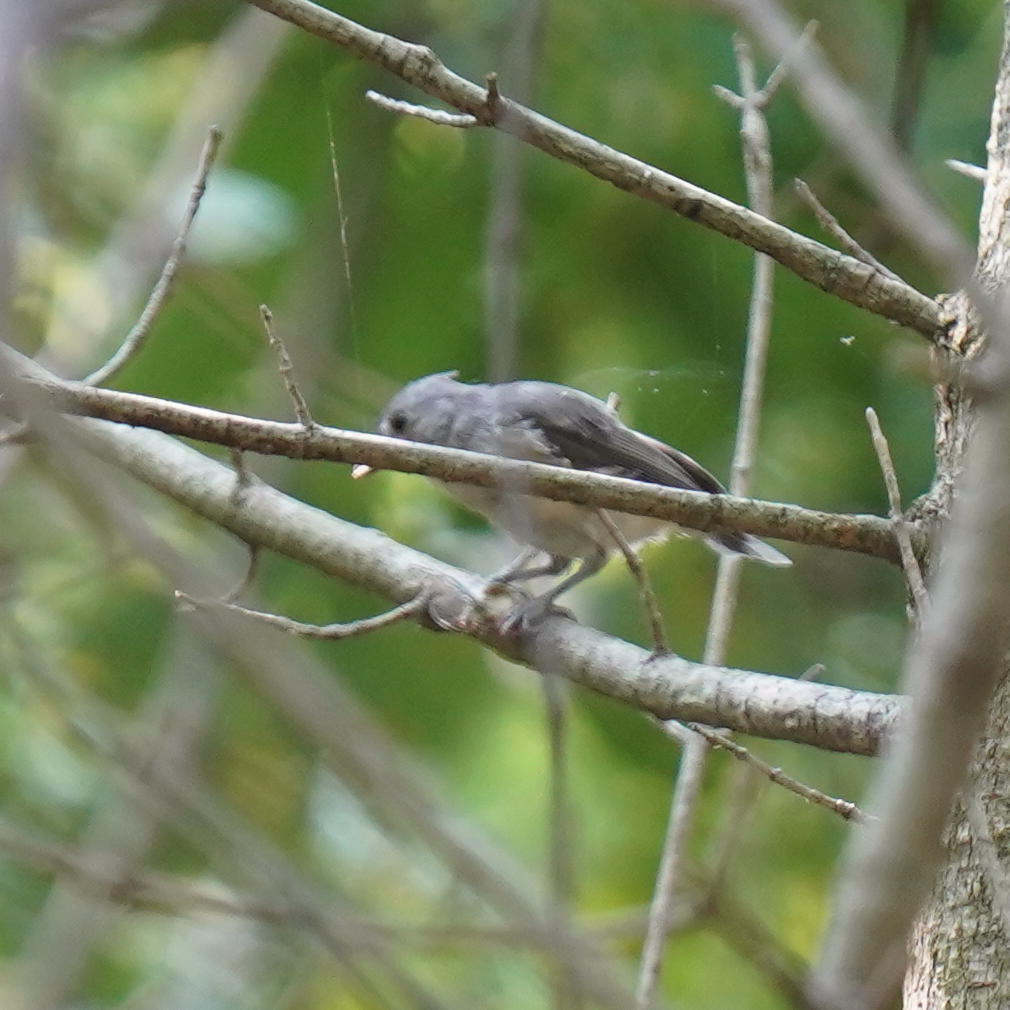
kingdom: Animalia
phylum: Chordata
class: Aves
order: Passeriformes
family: Paridae
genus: Baeolophus
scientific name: Baeolophus bicolor
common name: Tufted titmouse
